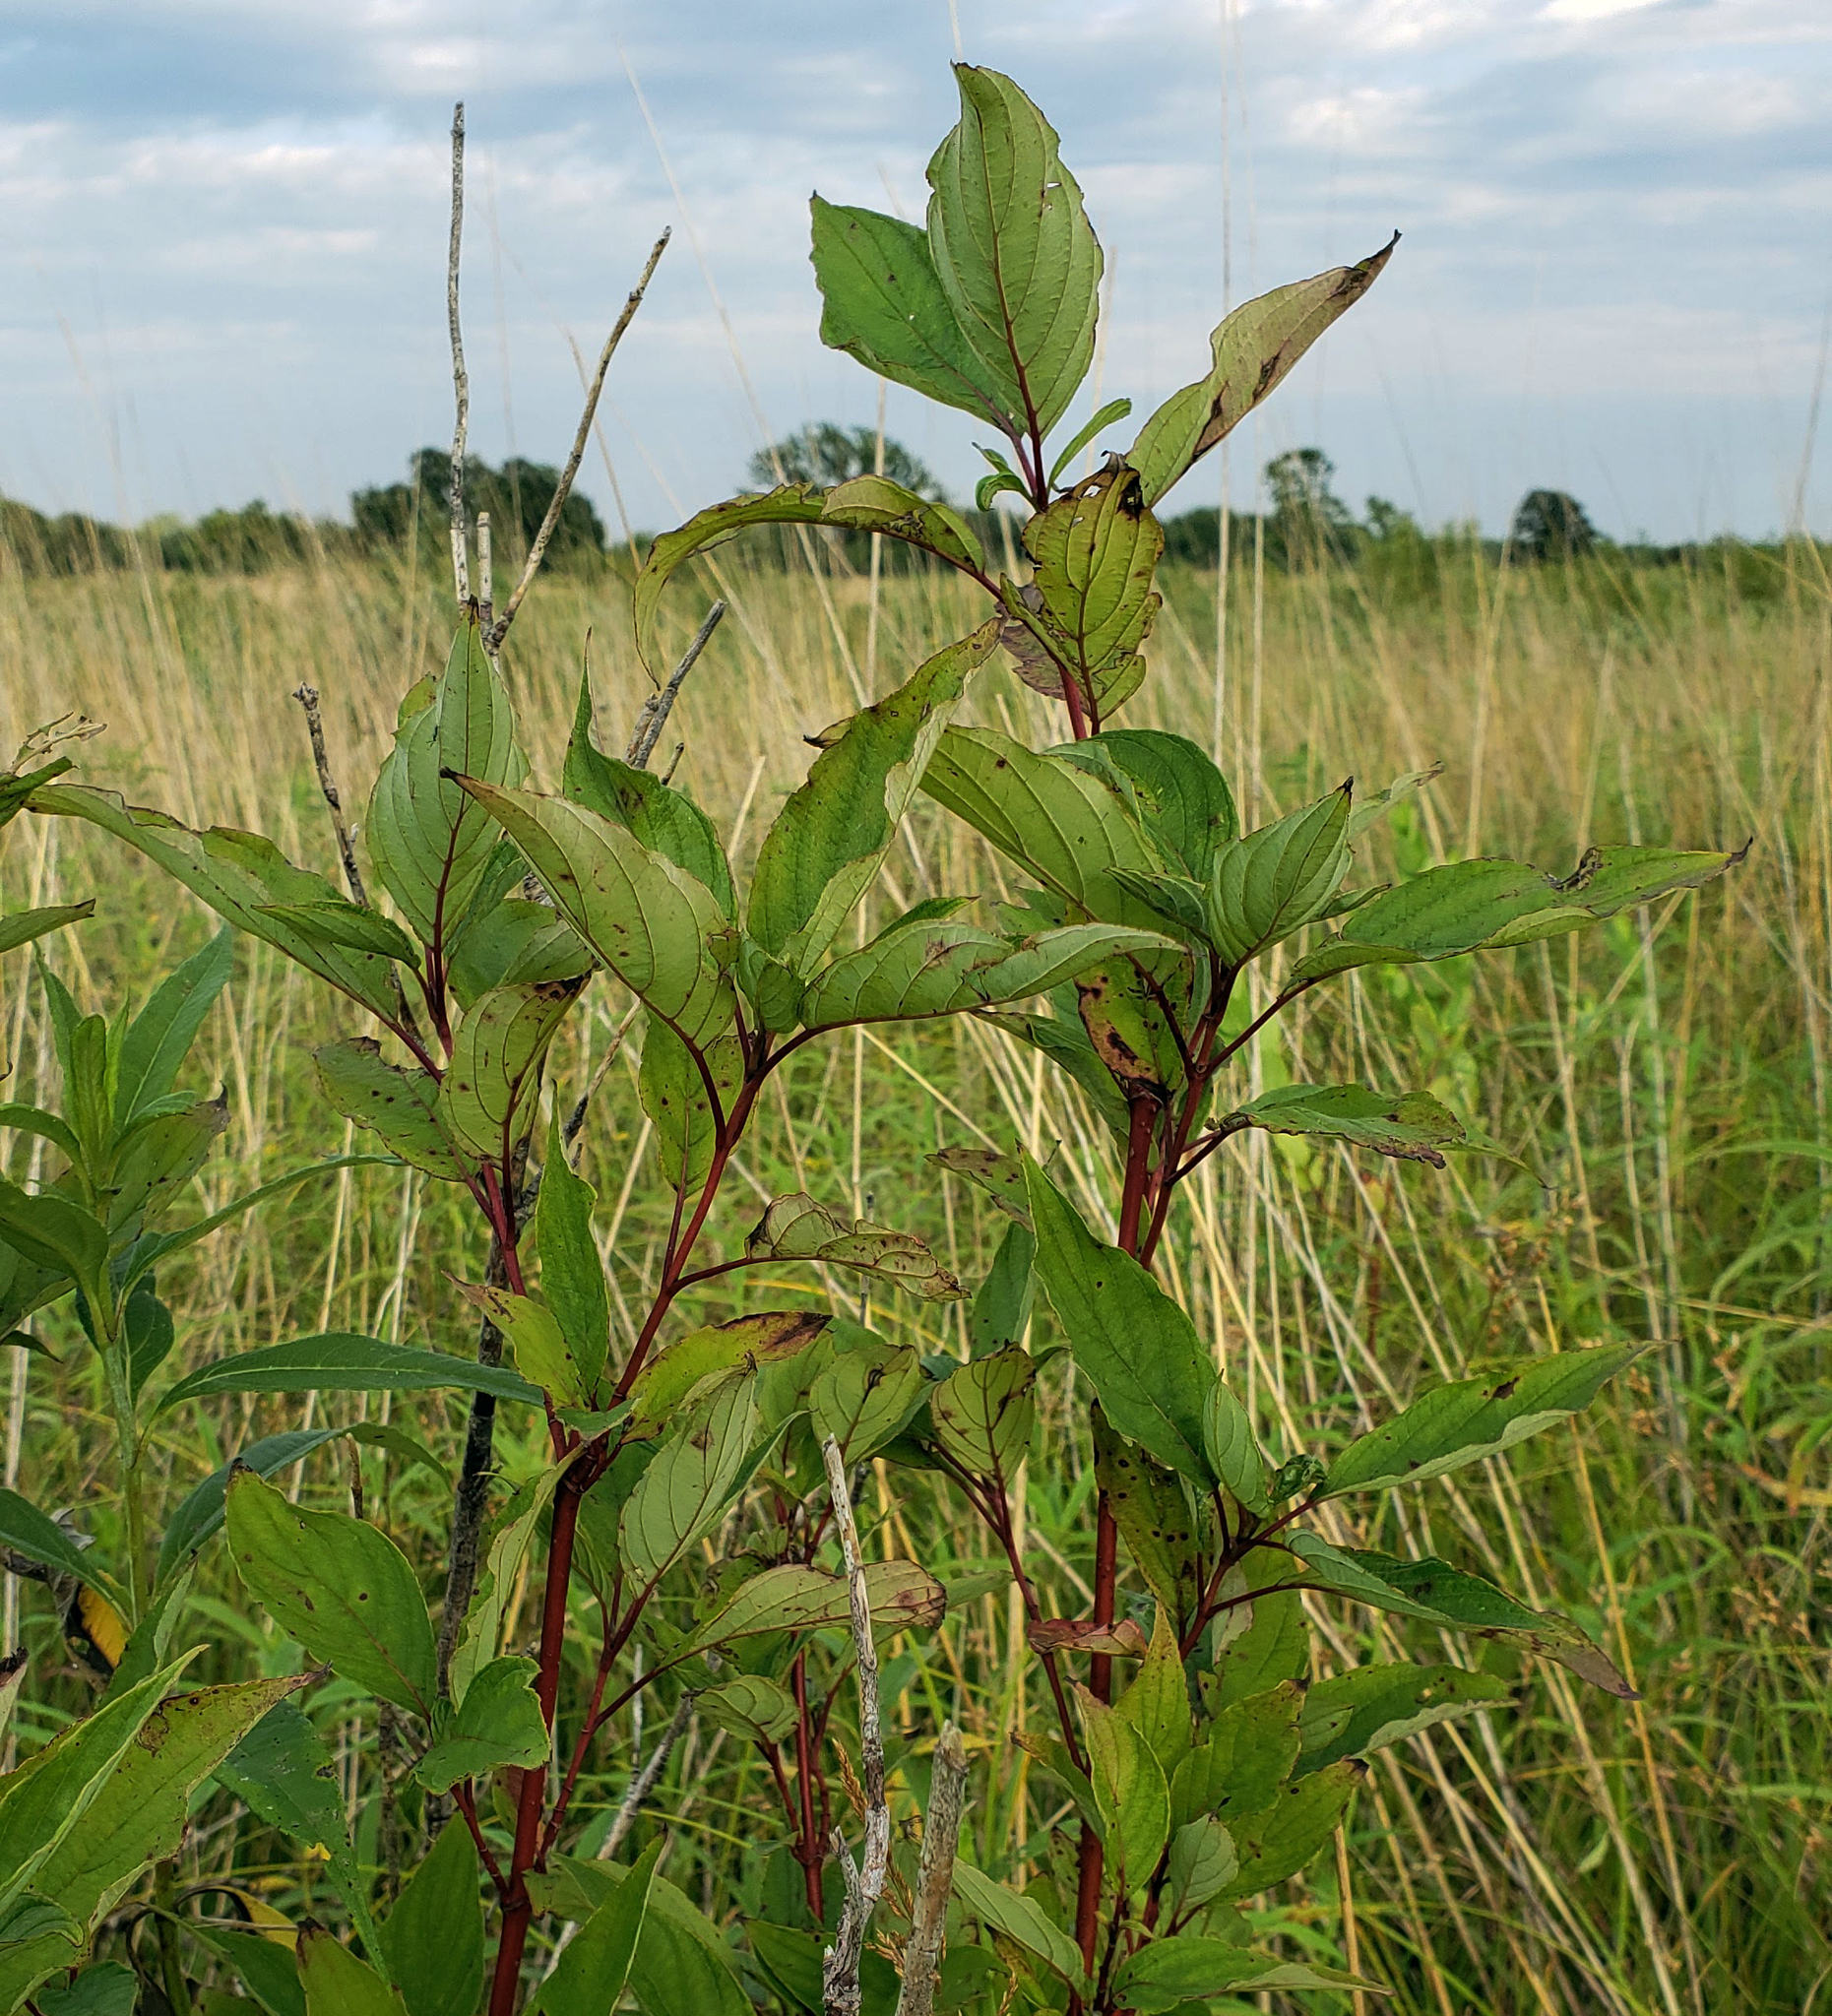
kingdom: Plantae
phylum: Tracheophyta
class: Magnoliopsida
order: Cornales
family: Cornaceae
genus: Cornus
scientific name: Cornus sericea
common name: Red-osier dogwood
